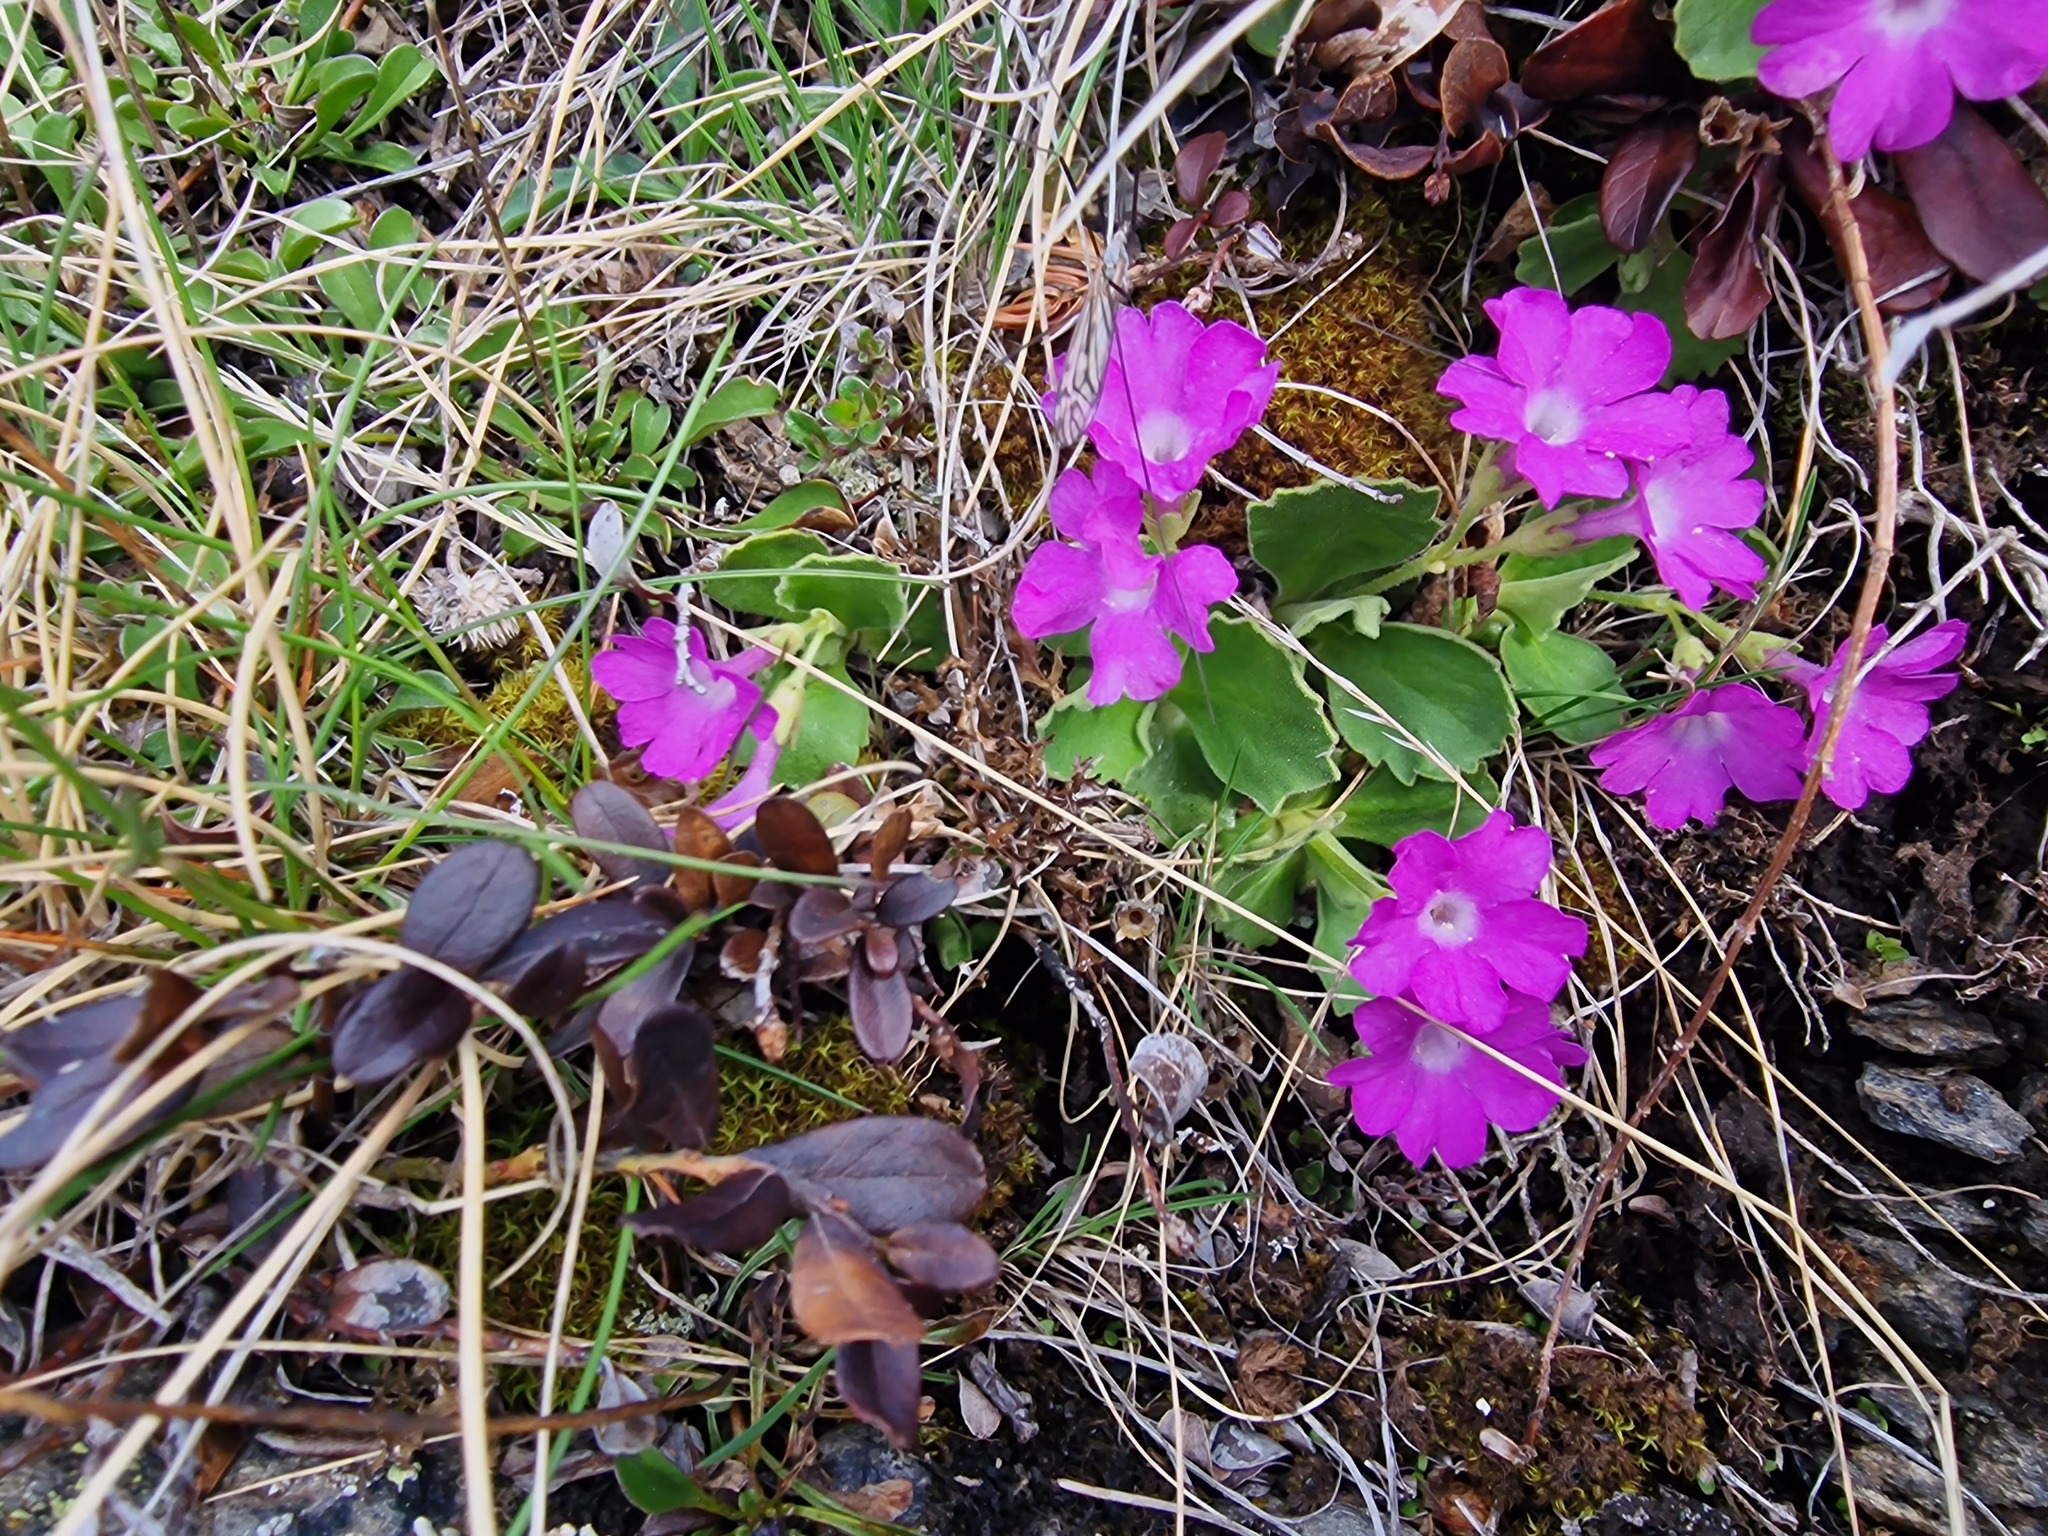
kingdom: Plantae
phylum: Tracheophyta
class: Magnoliopsida
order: Ericales
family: Primulaceae
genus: Primula
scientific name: Primula hirsuta
